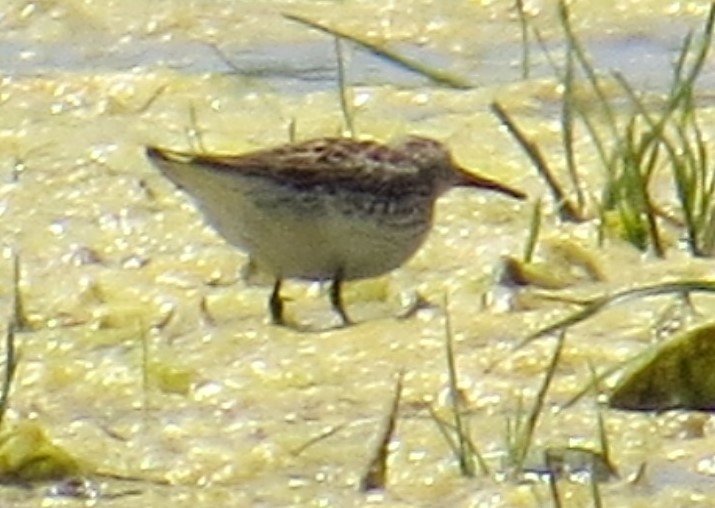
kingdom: Animalia
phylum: Chordata
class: Aves
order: Charadriiformes
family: Scolopacidae
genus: Calidris
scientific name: Calidris fuscicollis
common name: White-rumped sandpiper
